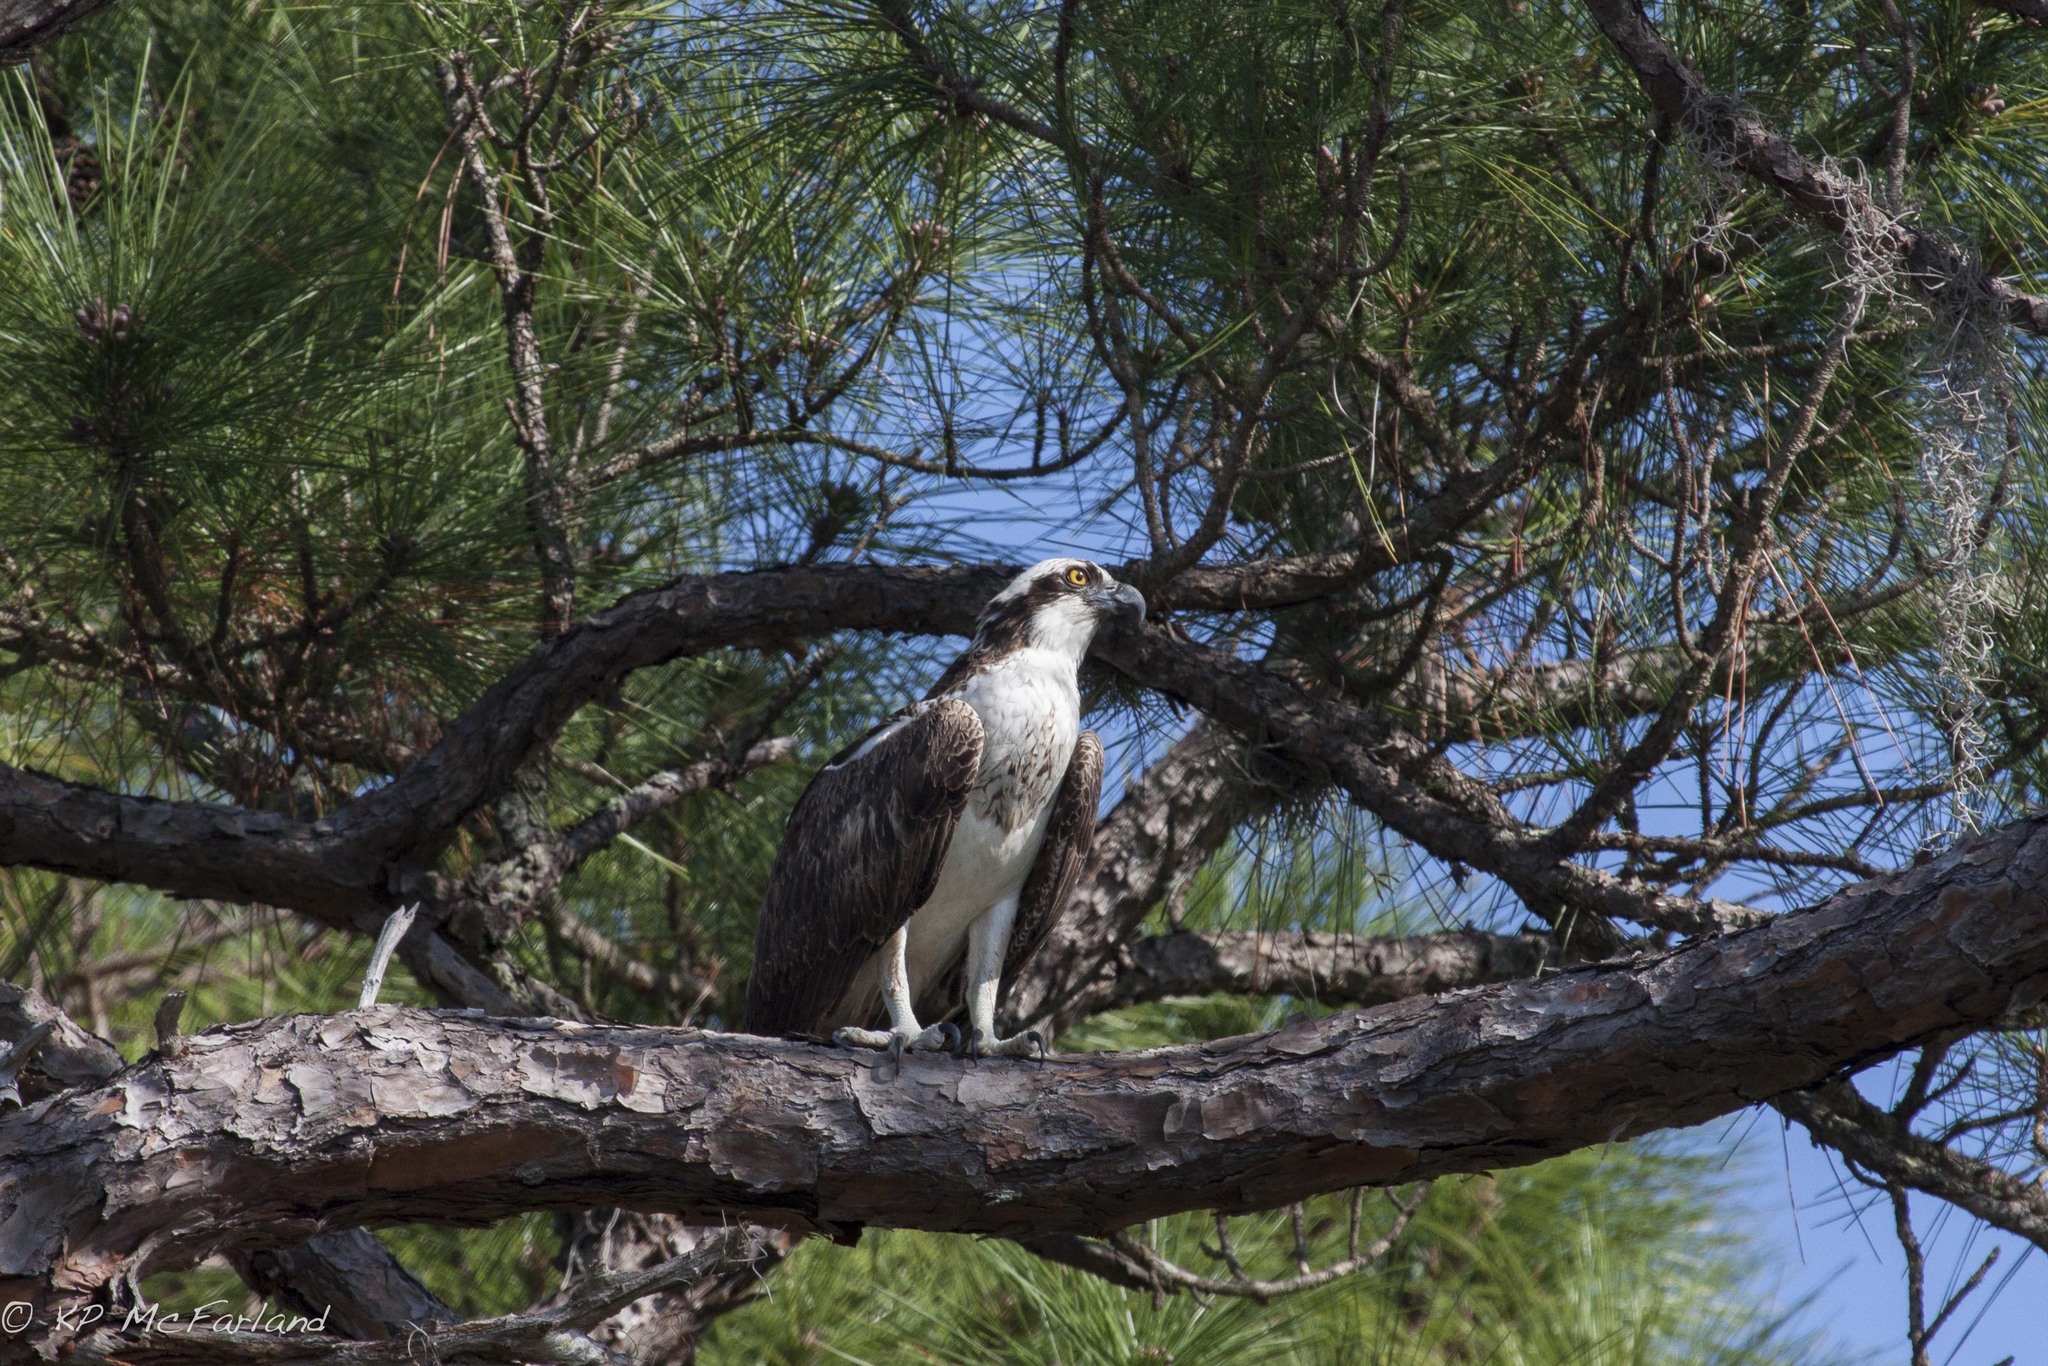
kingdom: Animalia
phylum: Chordata
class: Aves
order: Accipitriformes
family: Pandionidae
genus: Pandion
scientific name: Pandion haliaetus
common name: Osprey
